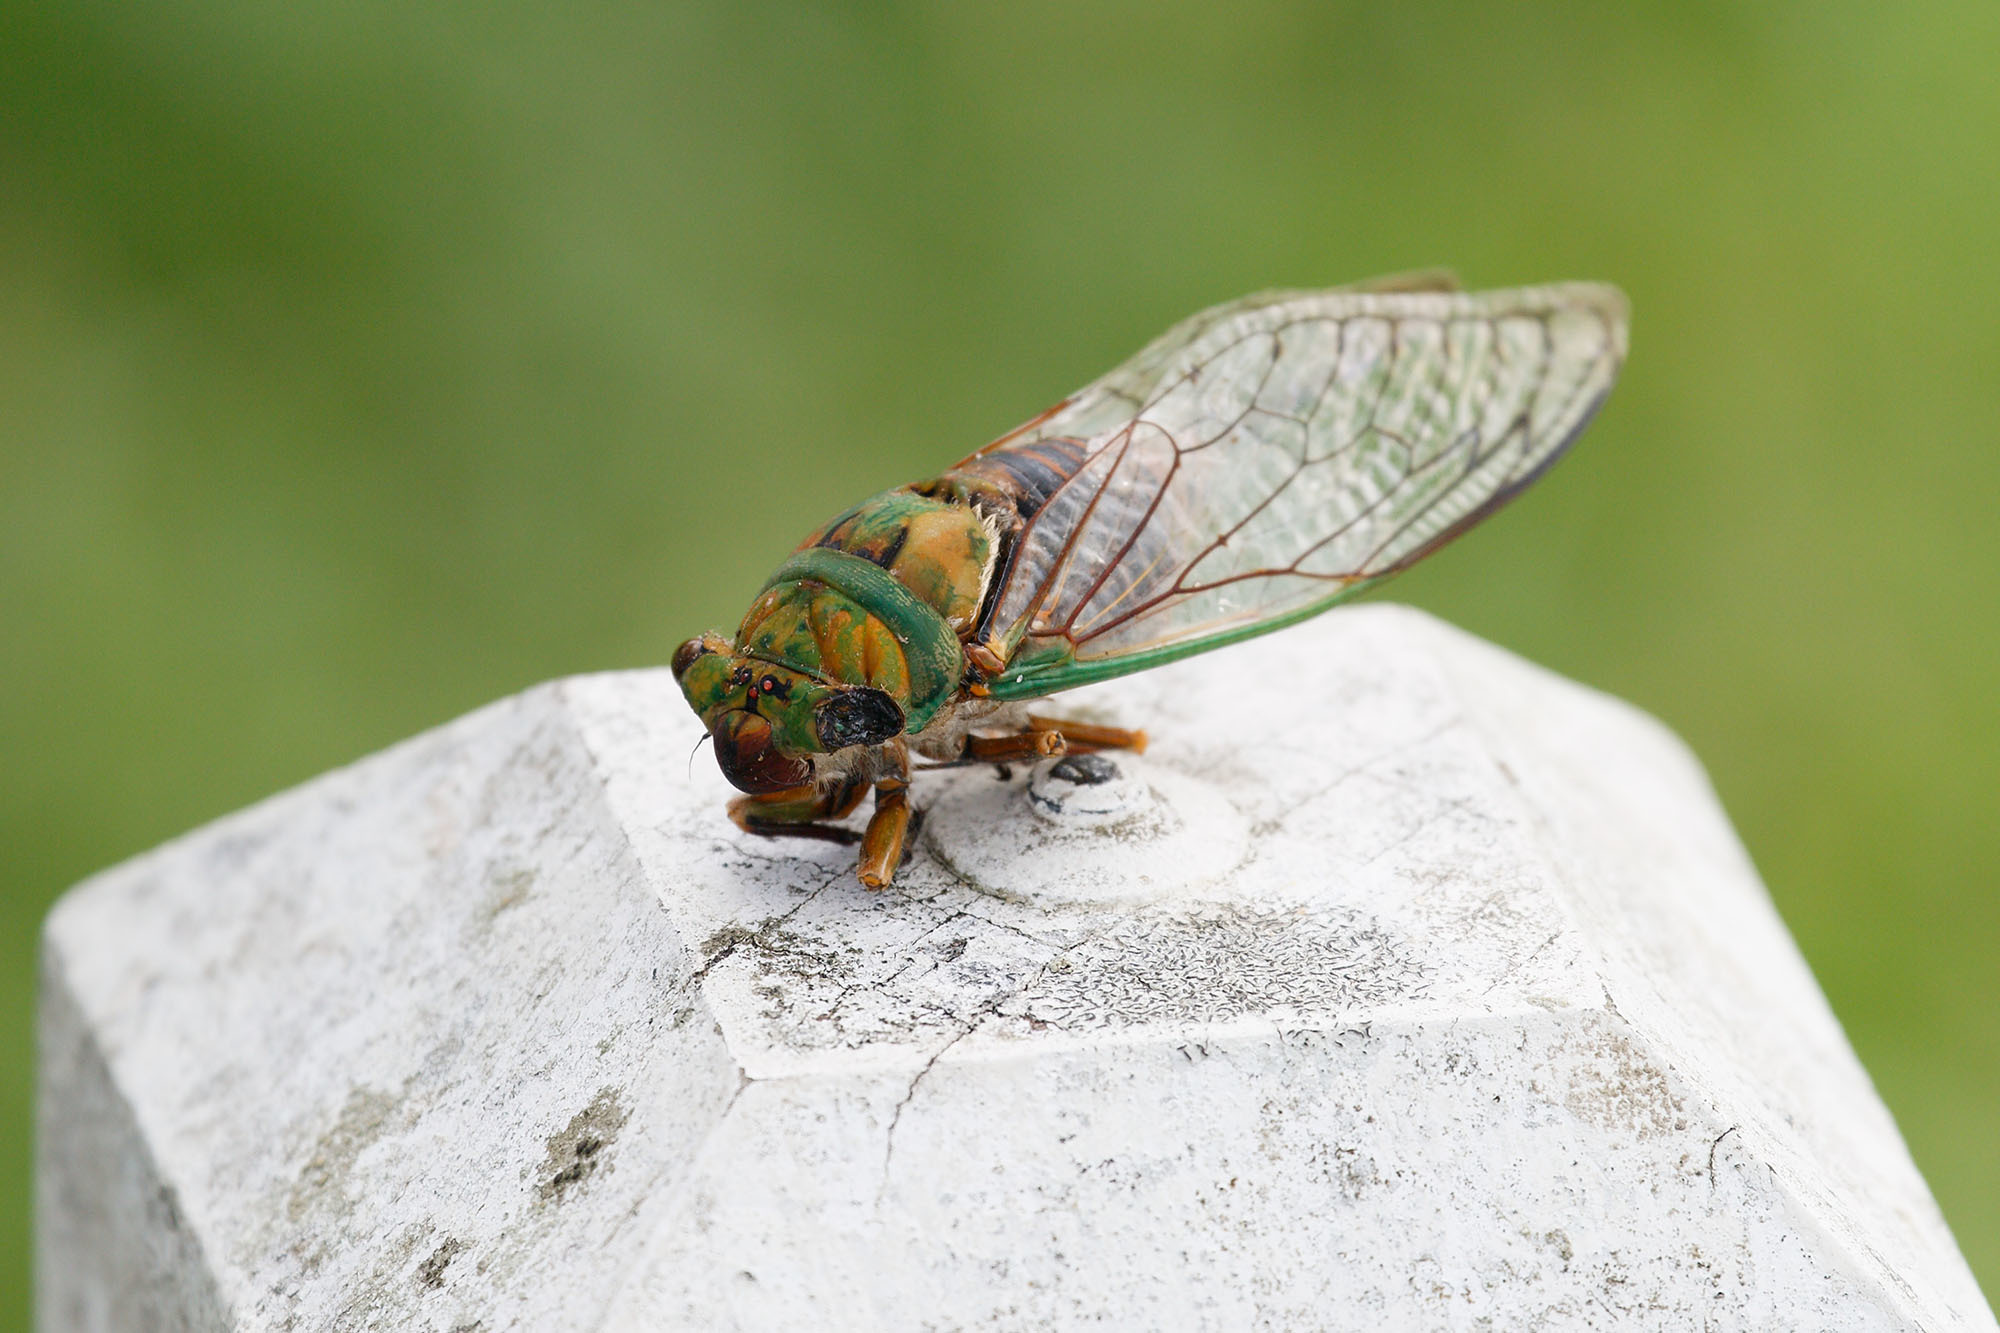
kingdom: Animalia
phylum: Arthropoda
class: Insecta
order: Hemiptera
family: Cicadidae
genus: Macrotristria
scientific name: Macrotristria sylvara
